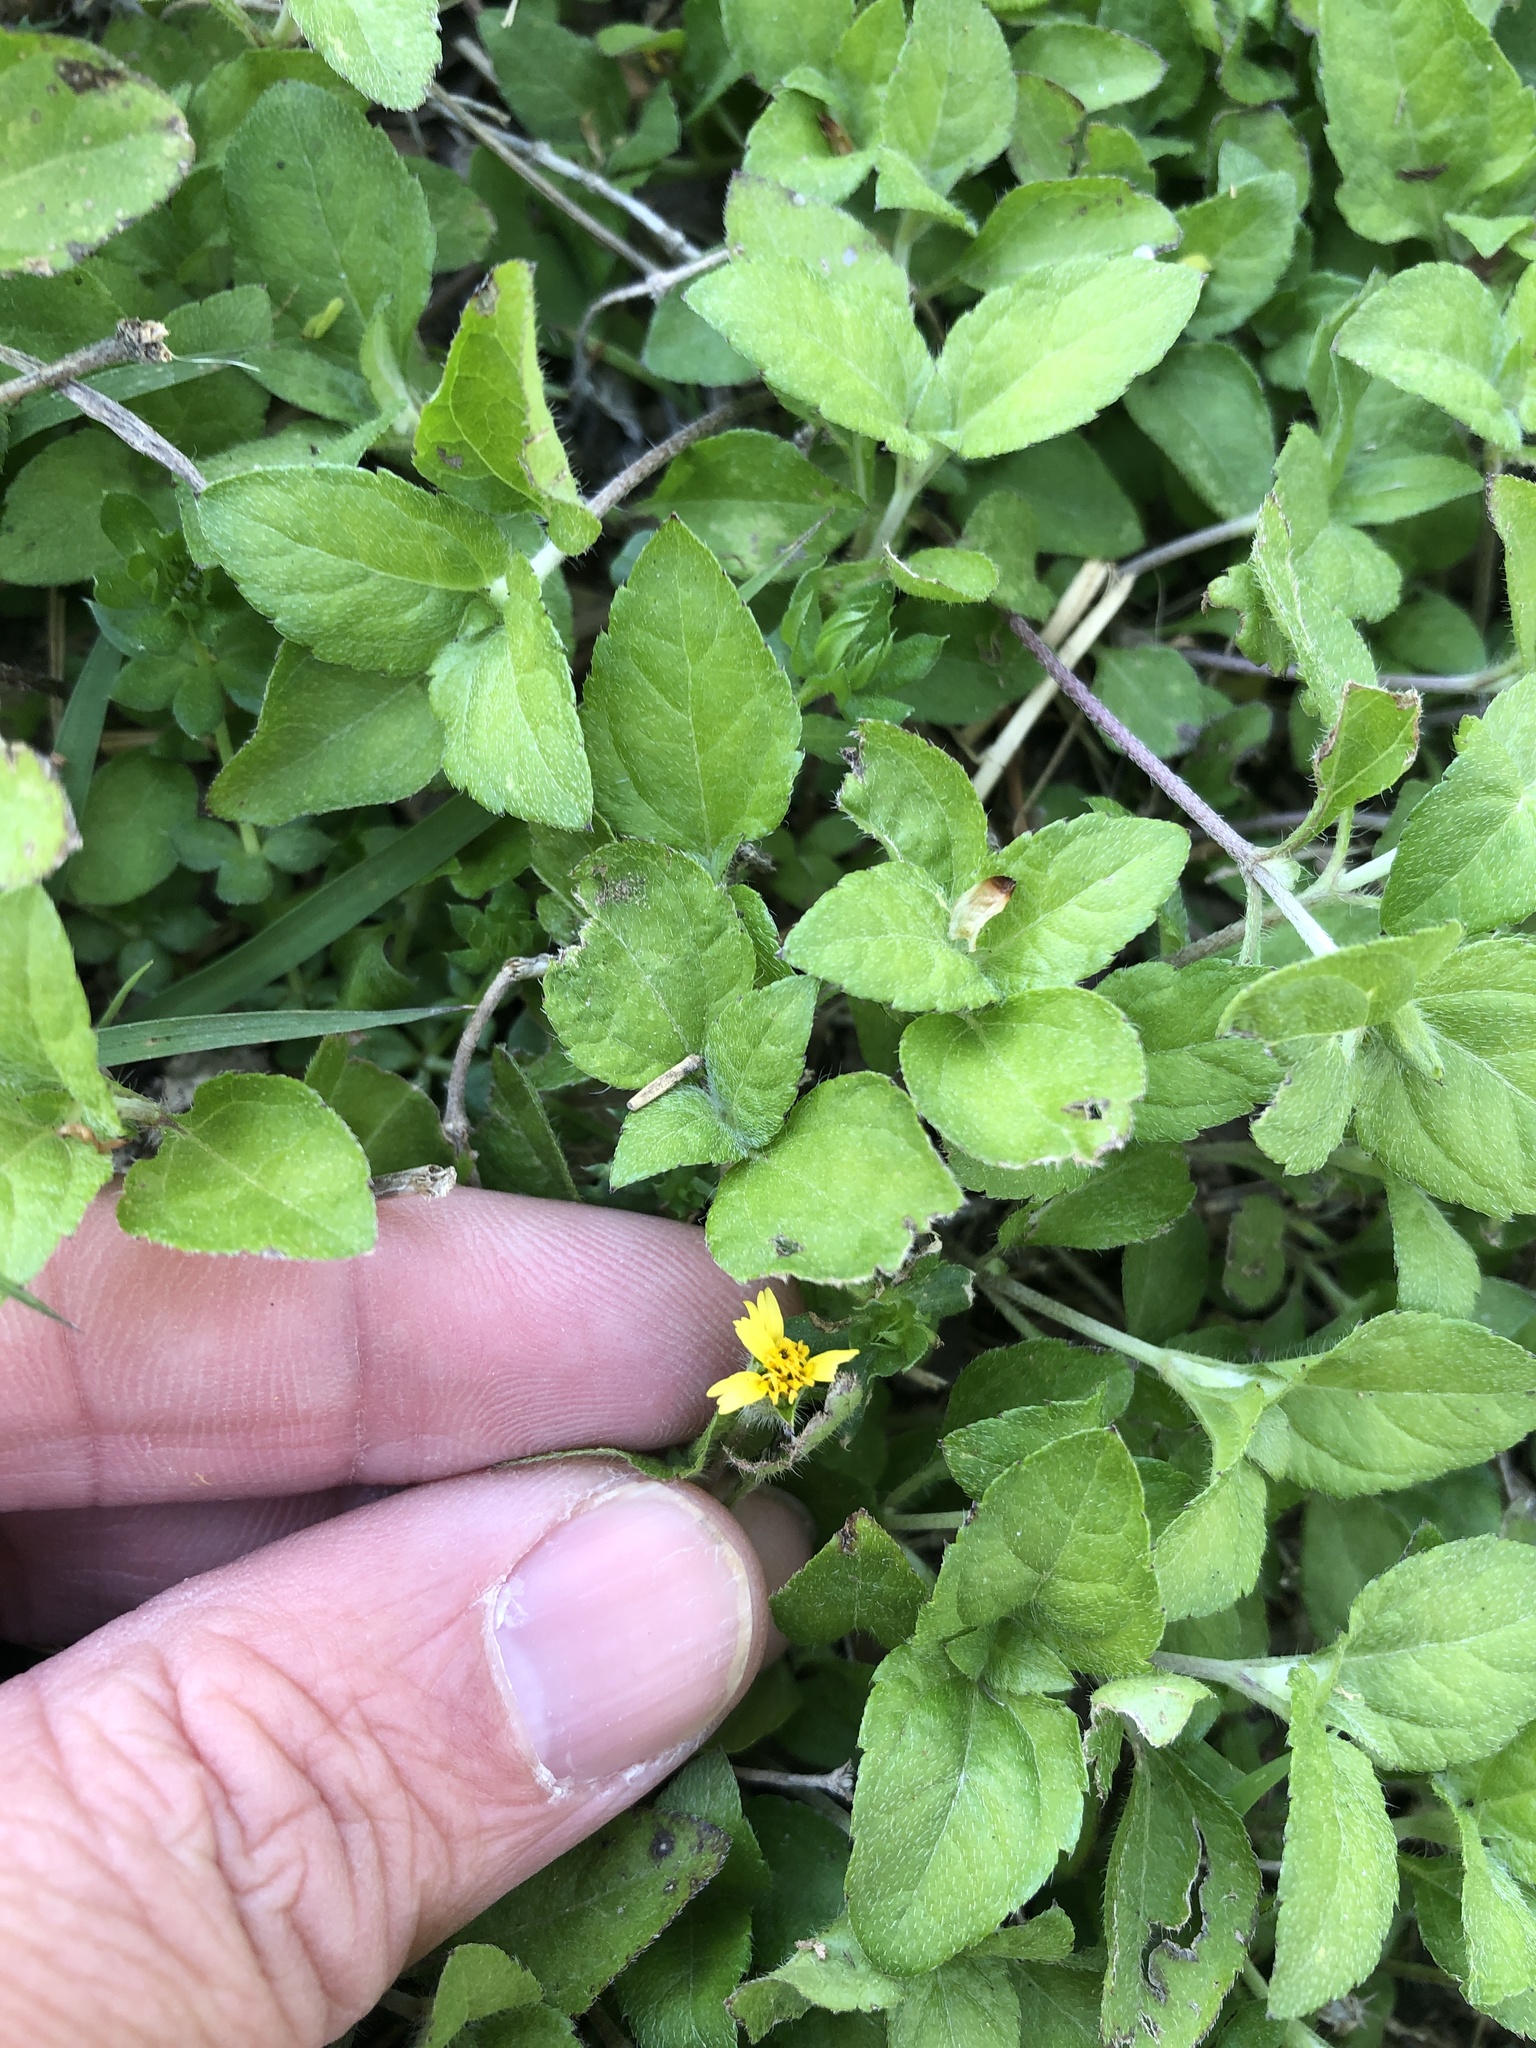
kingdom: Plantae
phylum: Tracheophyta
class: Magnoliopsida
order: Asterales
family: Asteraceae
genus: Calyptocarpus
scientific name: Calyptocarpus vialis
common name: Straggler daisy
